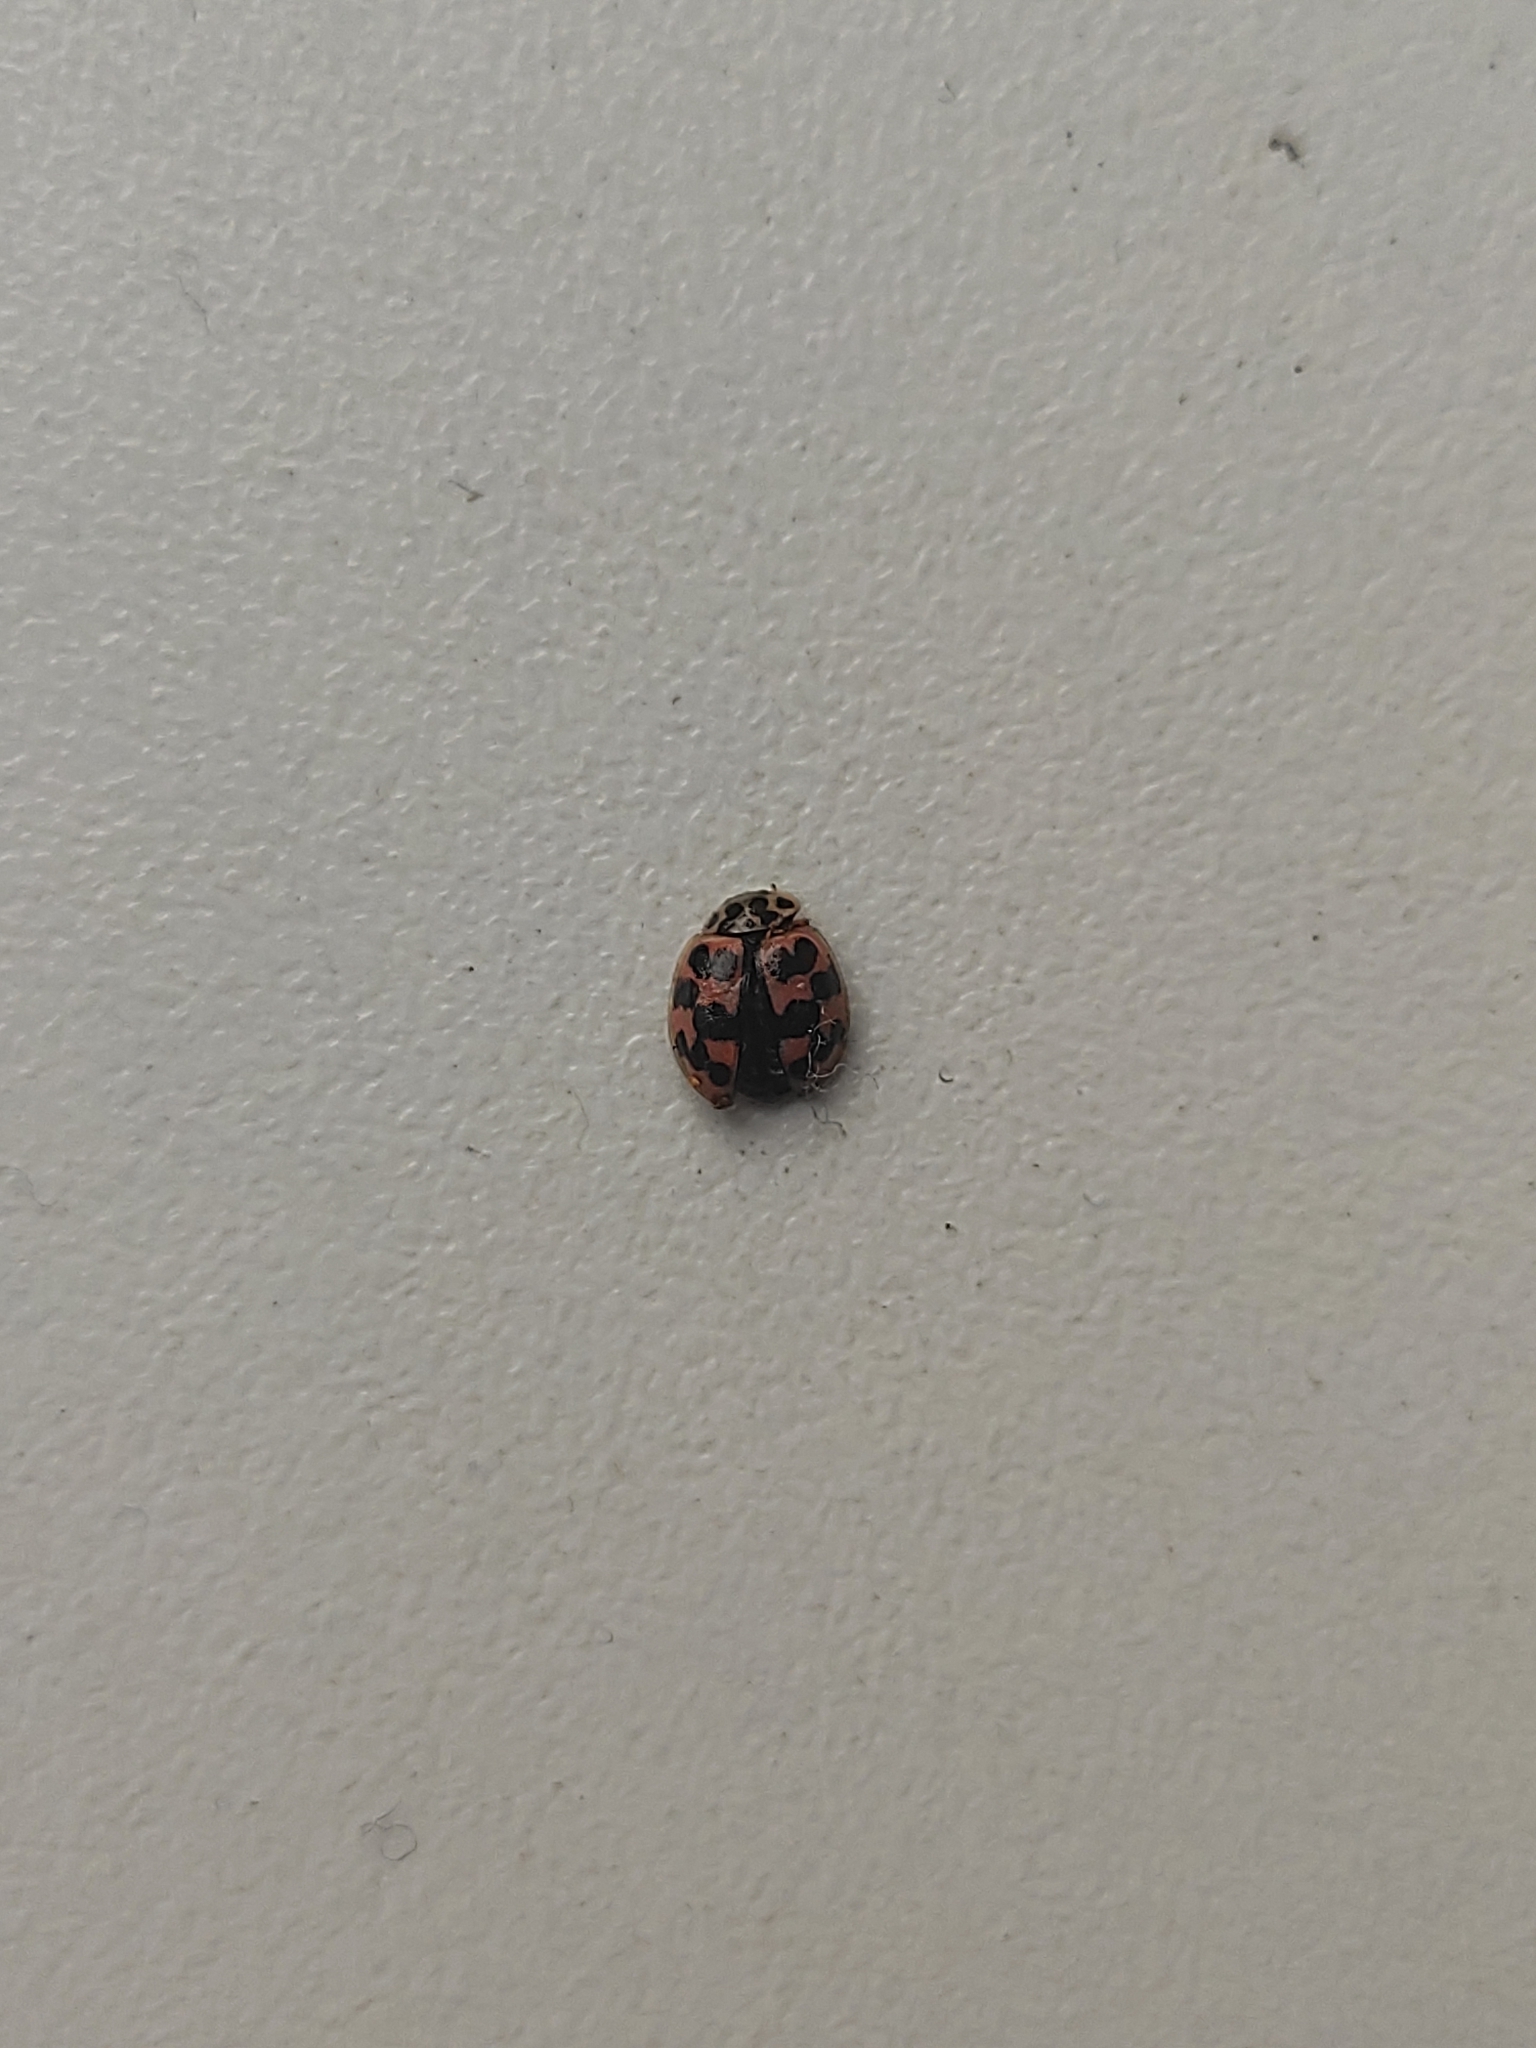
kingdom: Animalia
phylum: Arthropoda
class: Insecta
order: Coleoptera
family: Coccinellidae
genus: Oenopia
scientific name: Oenopia conglobata
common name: Ladybird beetle
